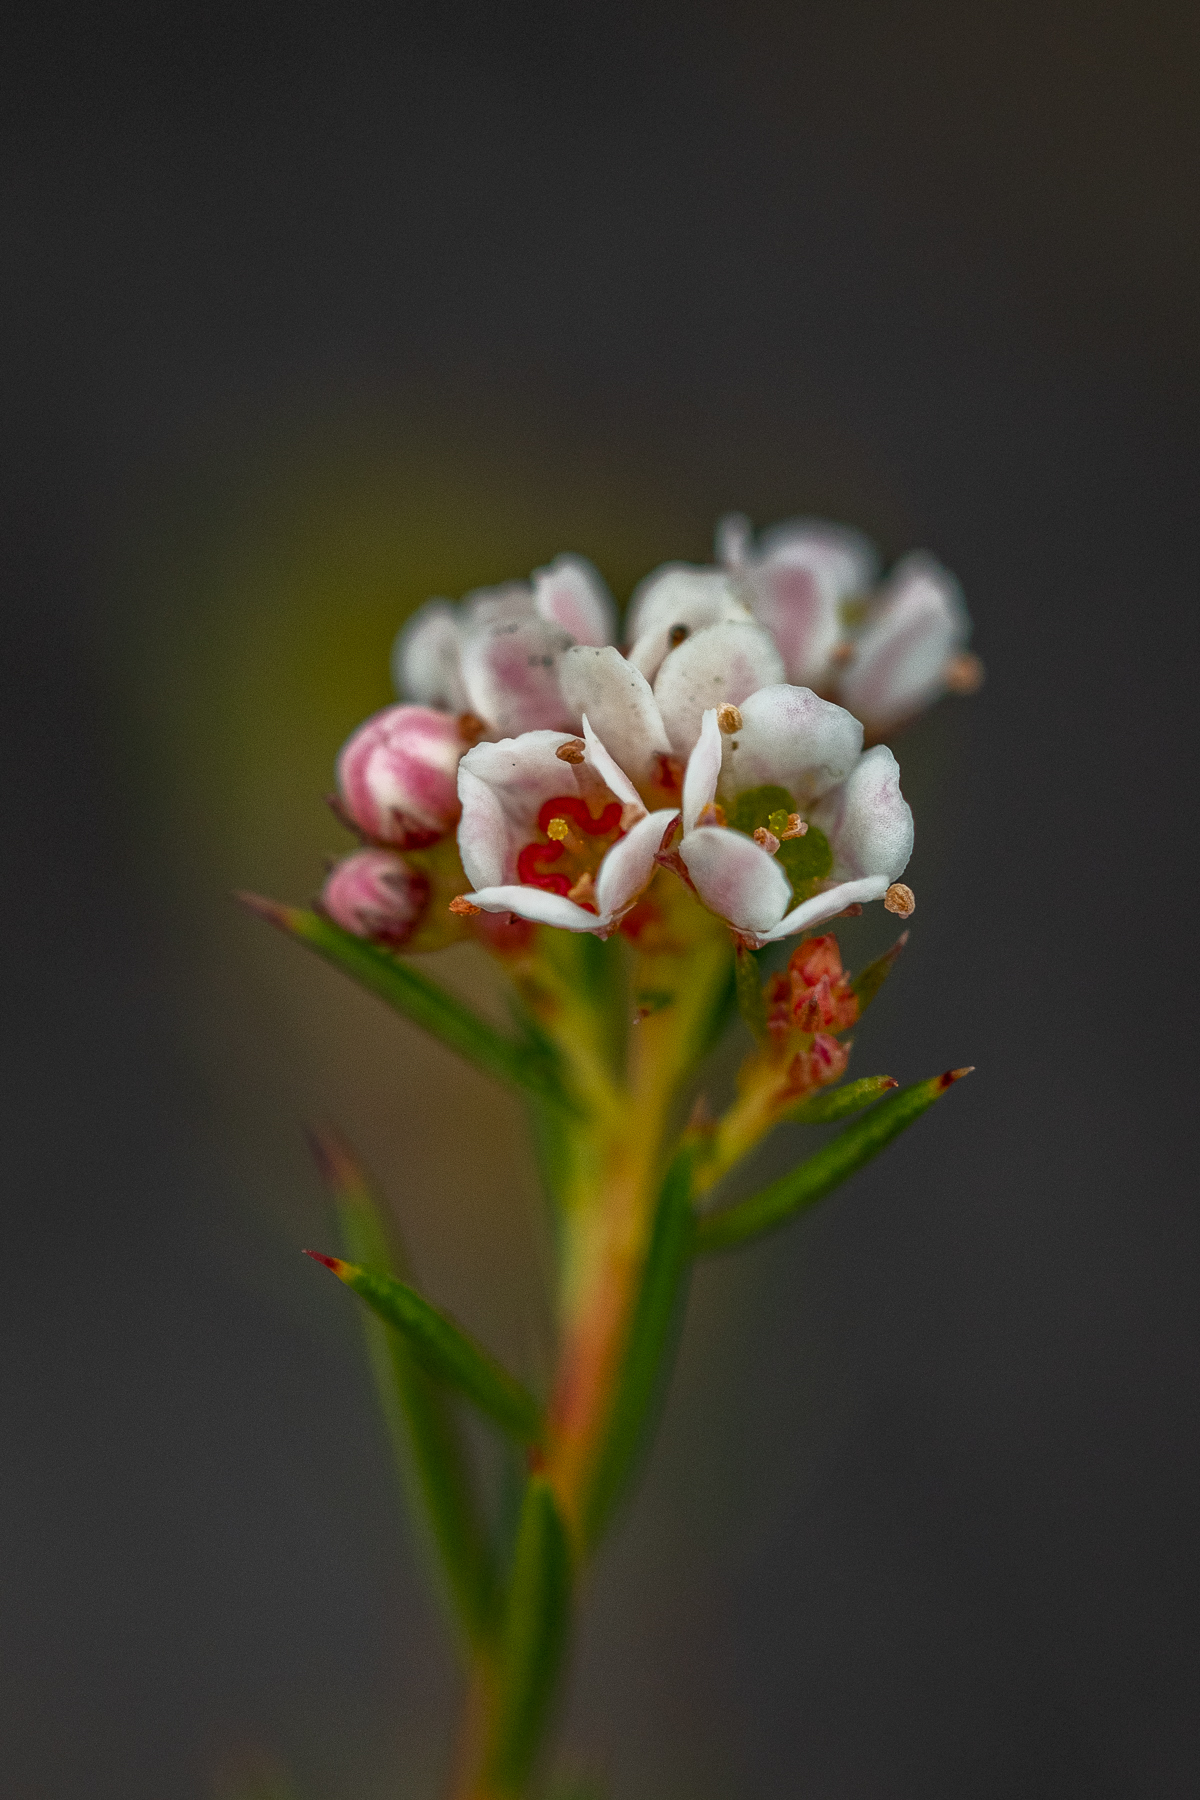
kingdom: Plantae
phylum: Tracheophyta
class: Magnoliopsida
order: Sapindales
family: Rutaceae
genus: Diosma
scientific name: Diosma hirsuta
